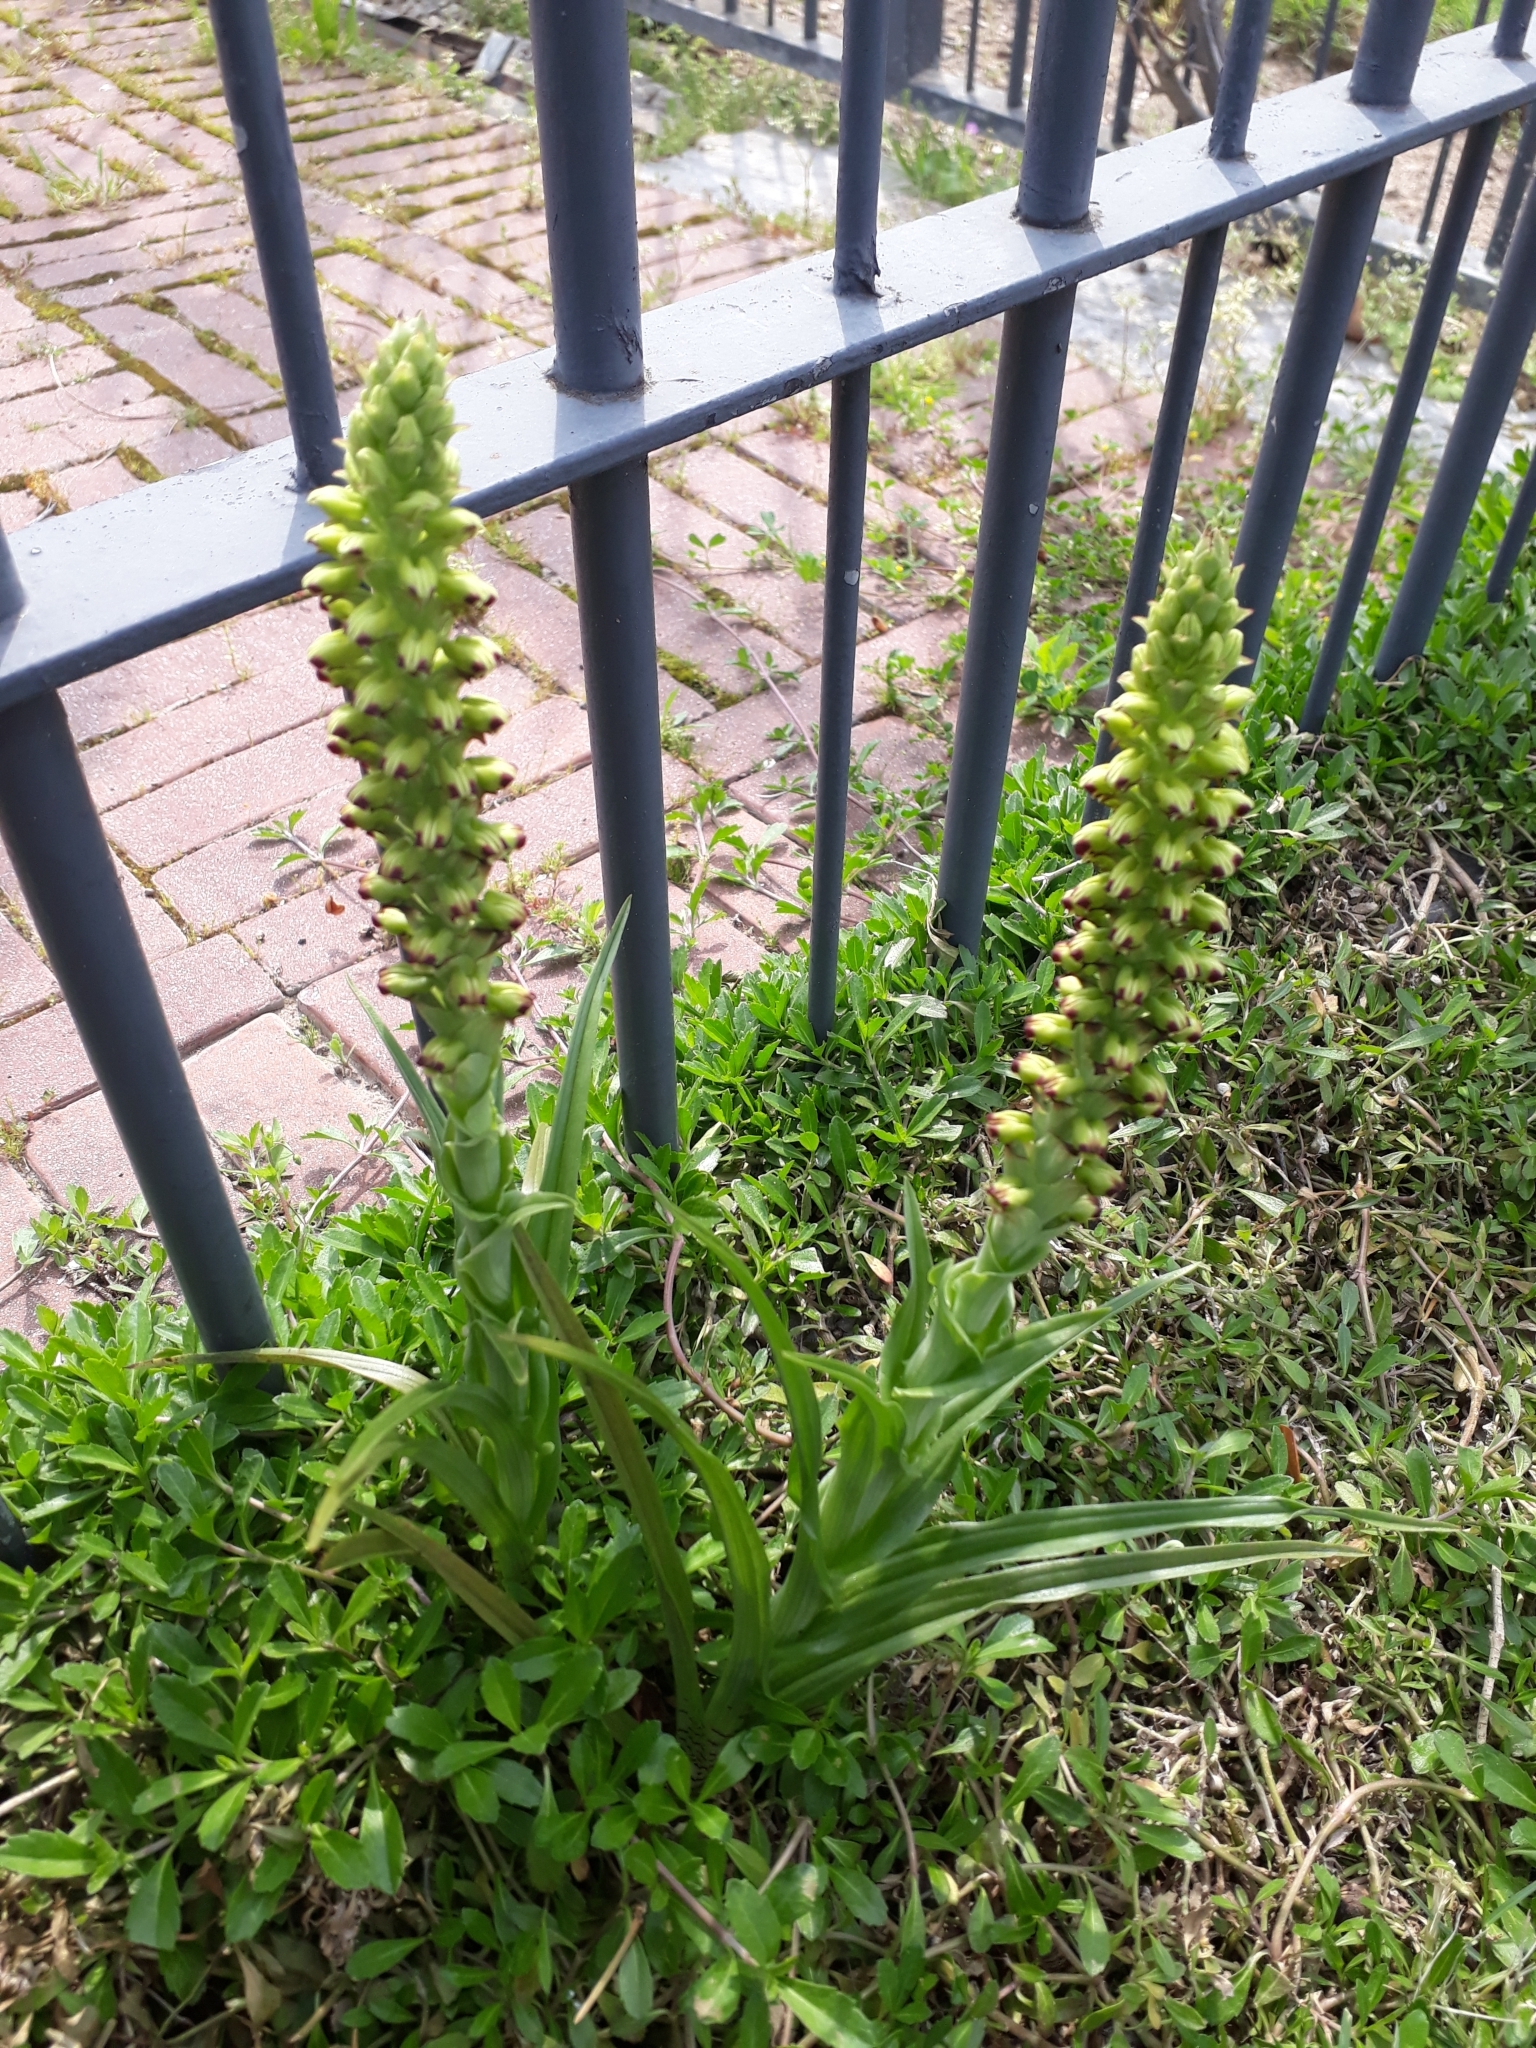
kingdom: Plantae
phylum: Tracheophyta
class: Liliopsida
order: Asparagales
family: Orchidaceae
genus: Corycium
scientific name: Corycium orobanchoides
